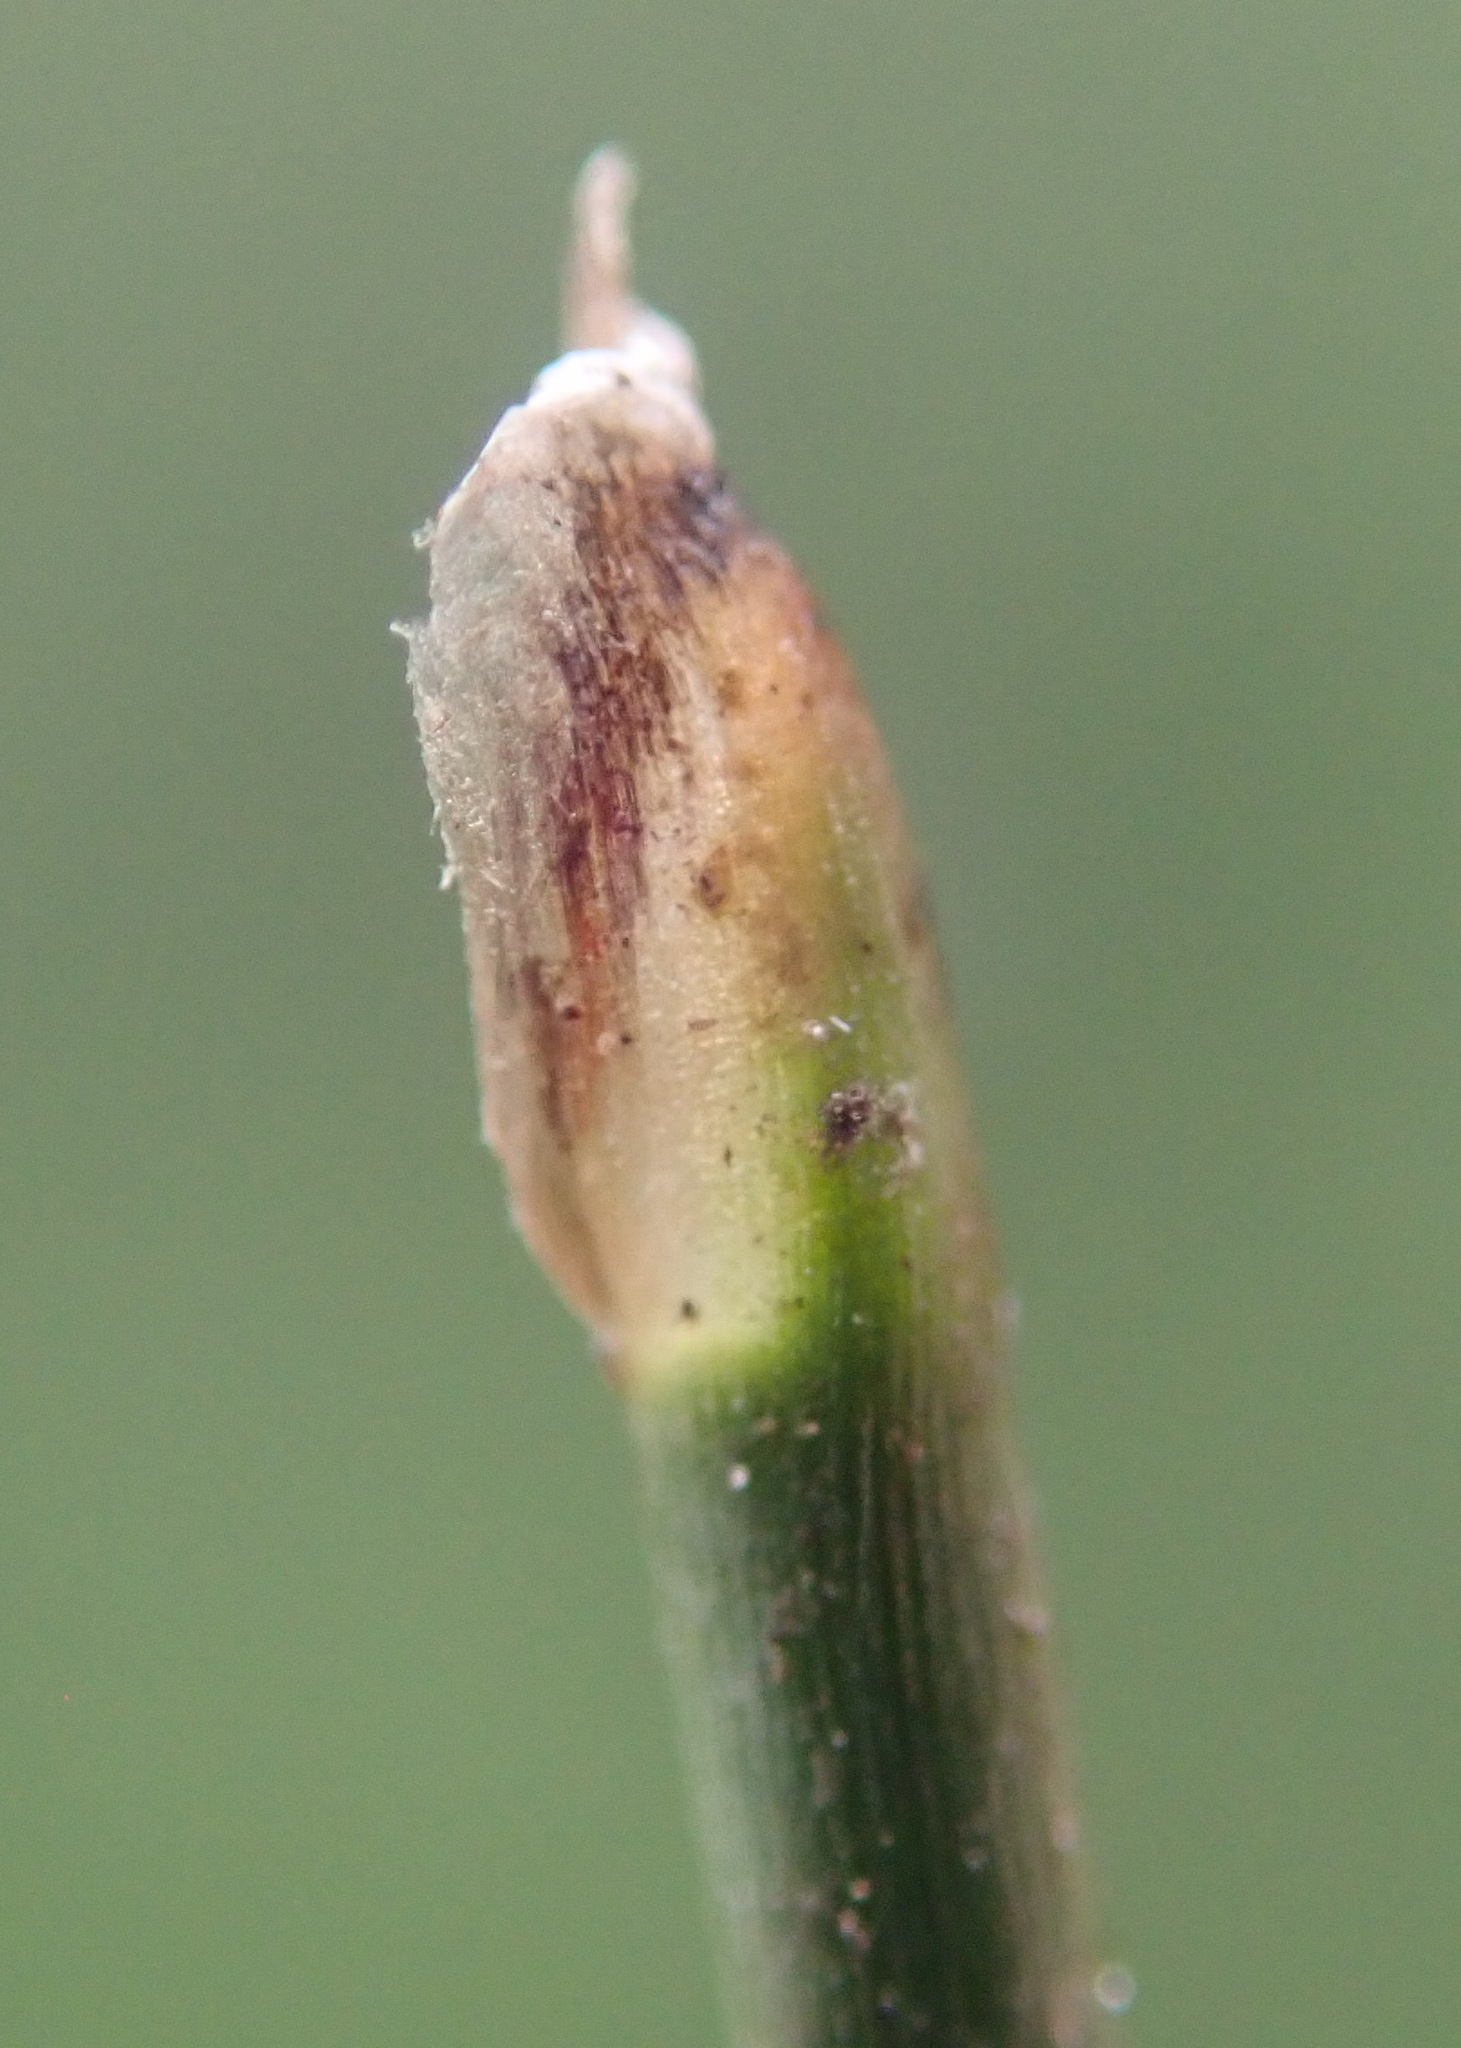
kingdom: Plantae
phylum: Tracheophyta
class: Liliopsida
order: Poales
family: Cyperaceae
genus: Eleocharis
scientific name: Eleocharis multicaulis
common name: Many-stalked spike-rush
